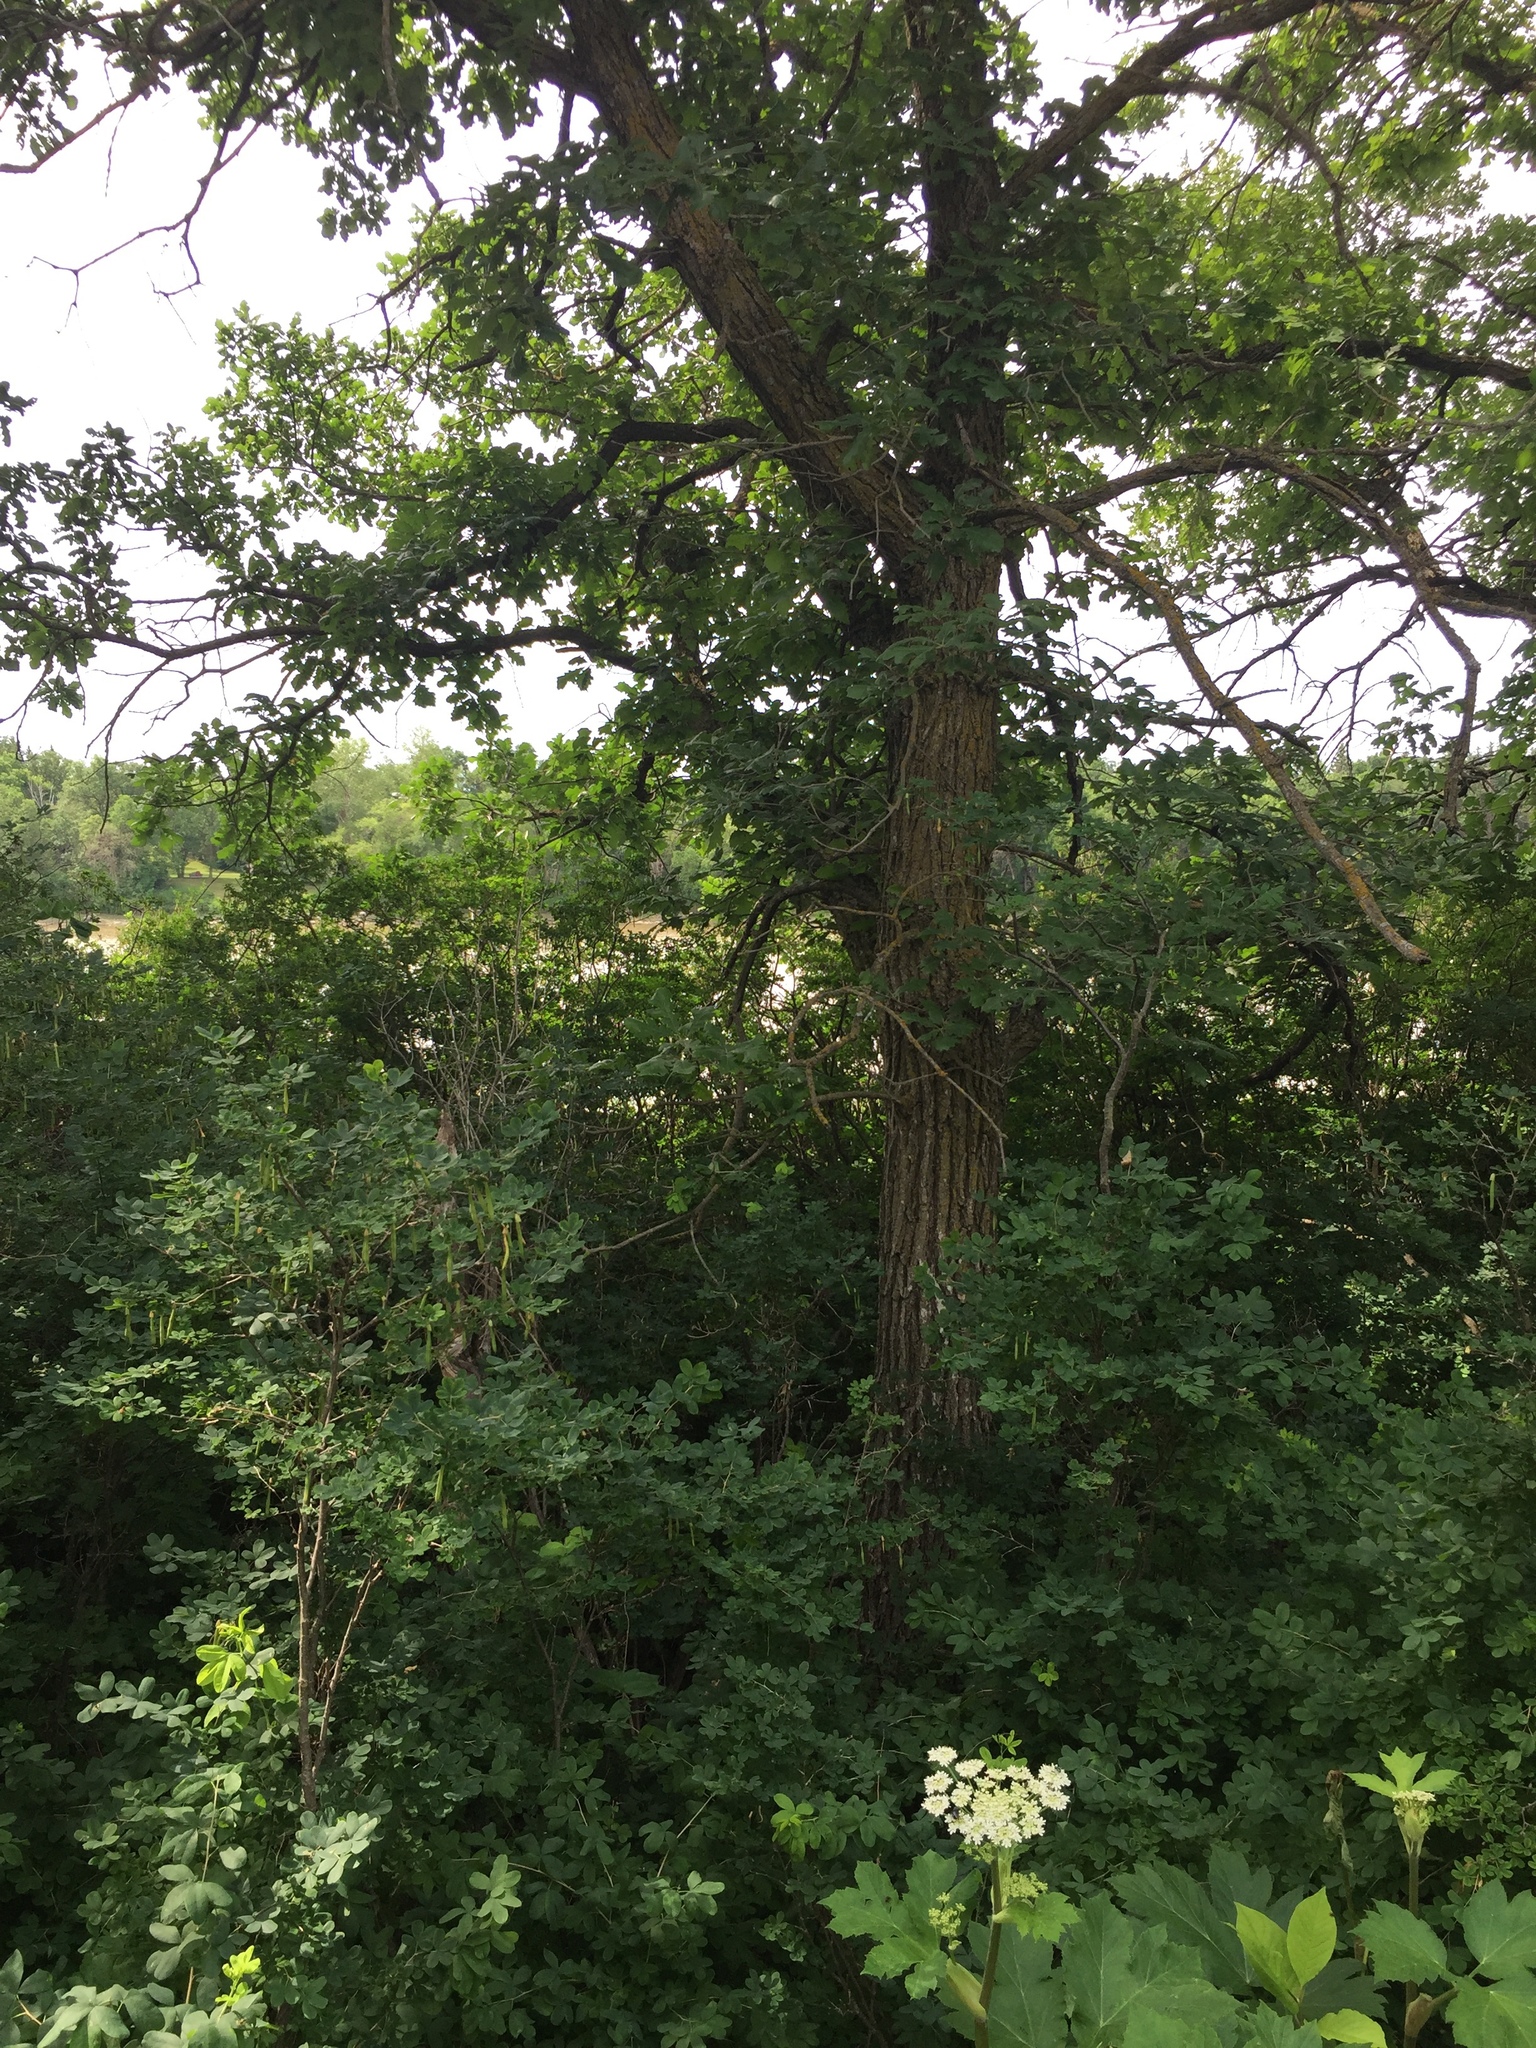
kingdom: Plantae
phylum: Tracheophyta
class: Magnoliopsida
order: Fagales
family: Fagaceae
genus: Quercus
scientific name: Quercus macrocarpa
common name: Bur oak
